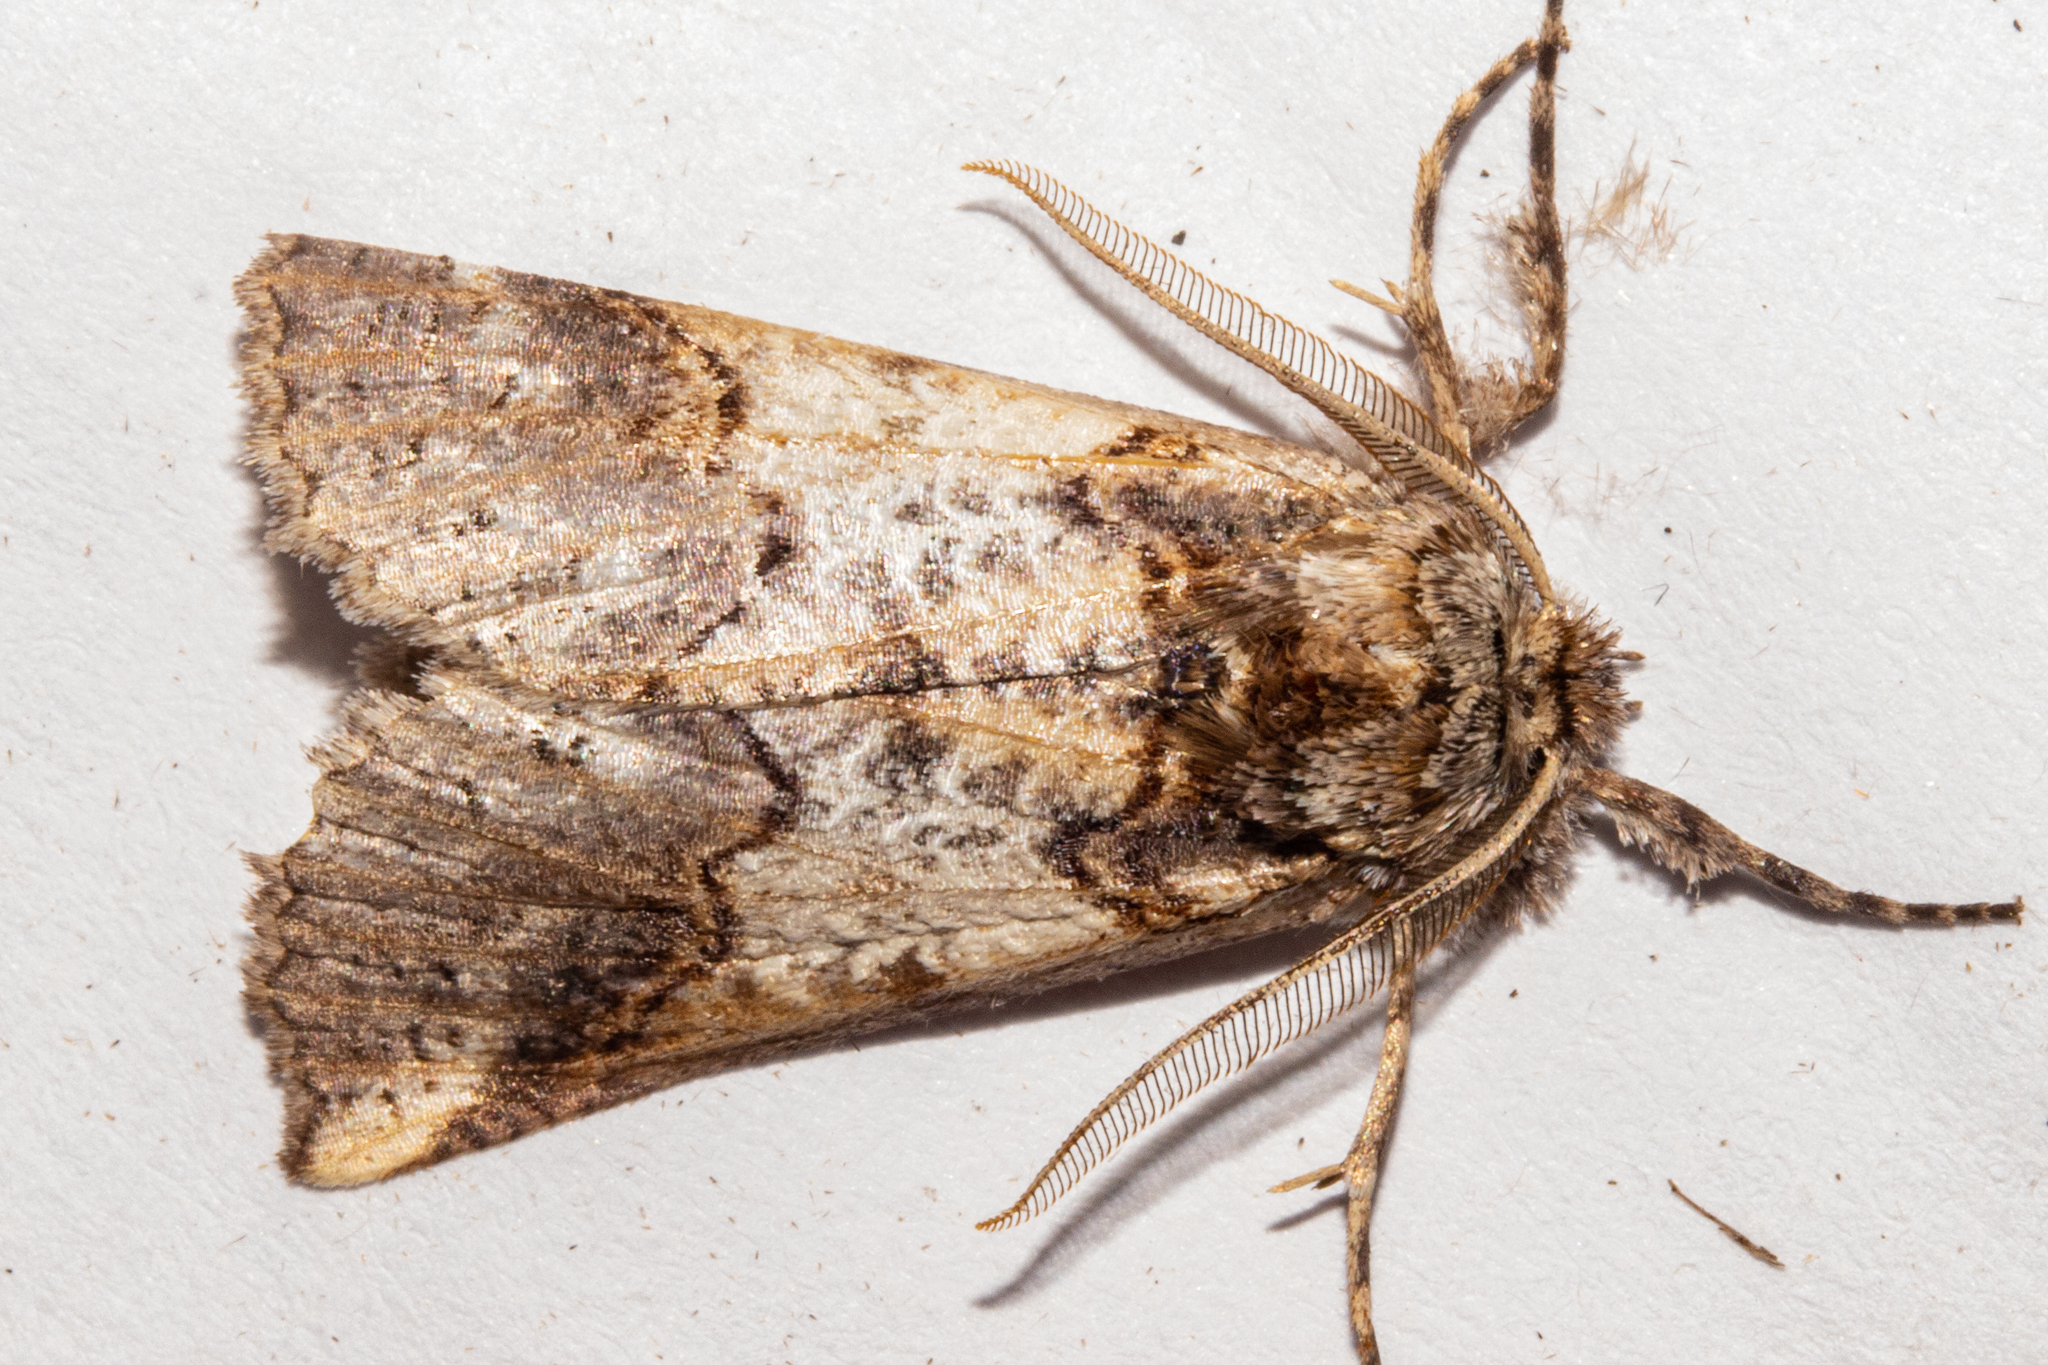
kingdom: Animalia
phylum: Arthropoda
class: Insecta
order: Lepidoptera
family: Geometridae
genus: Declana
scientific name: Declana
